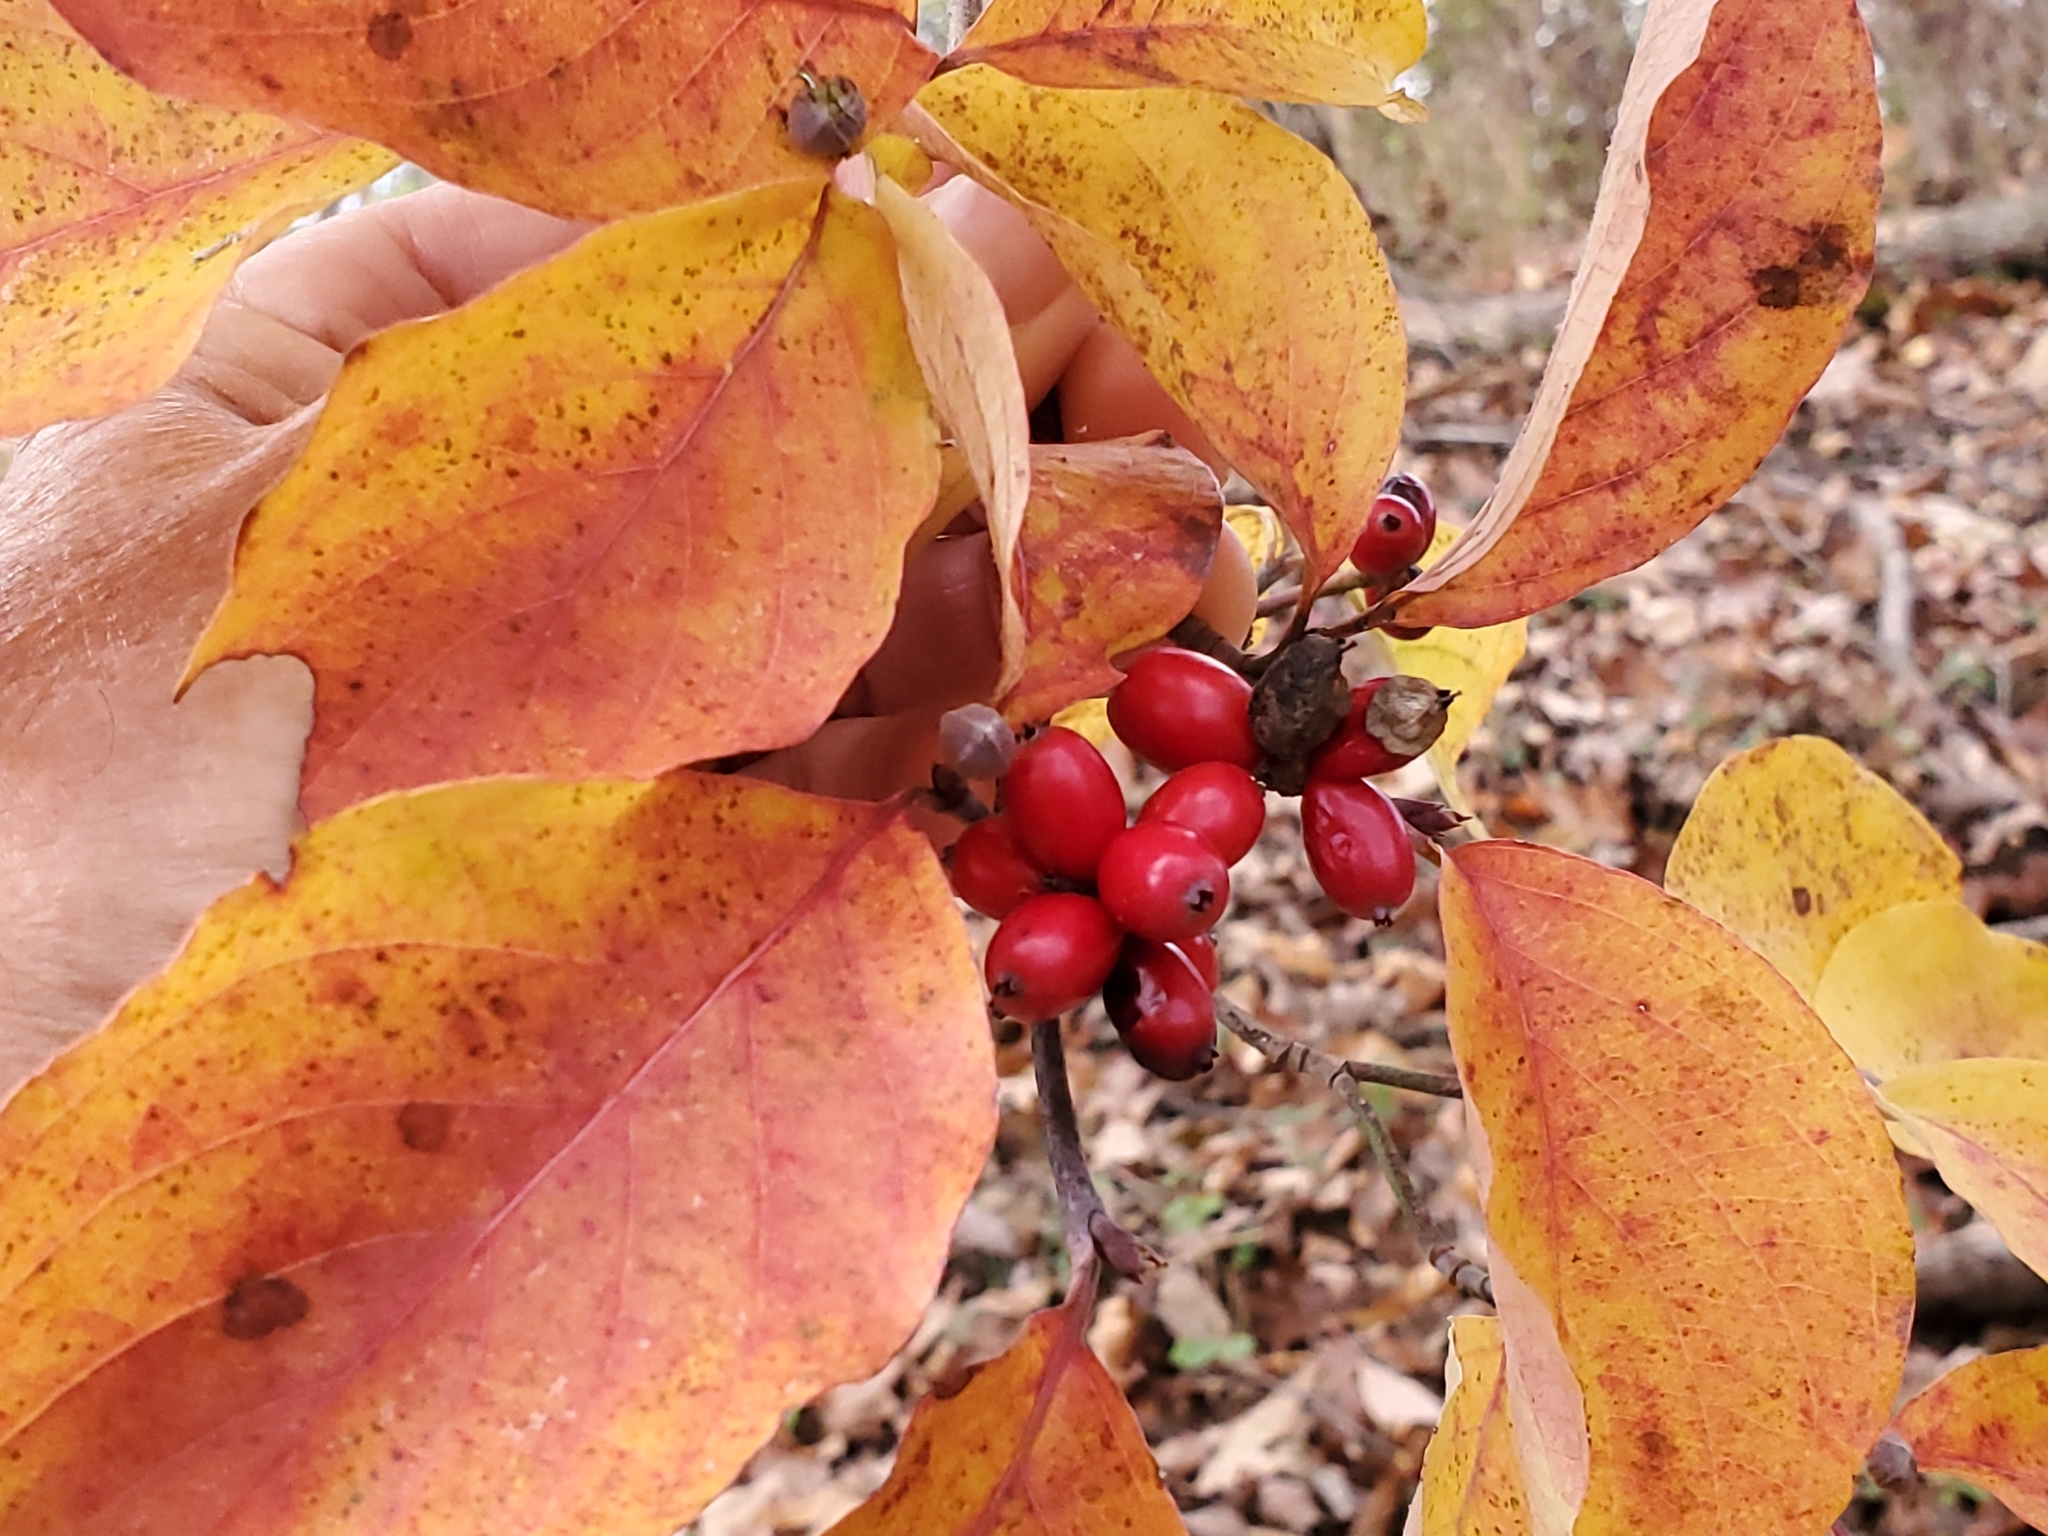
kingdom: Plantae
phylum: Tracheophyta
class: Magnoliopsida
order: Cornales
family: Cornaceae
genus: Cornus
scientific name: Cornus florida
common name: Flowering dogwood
